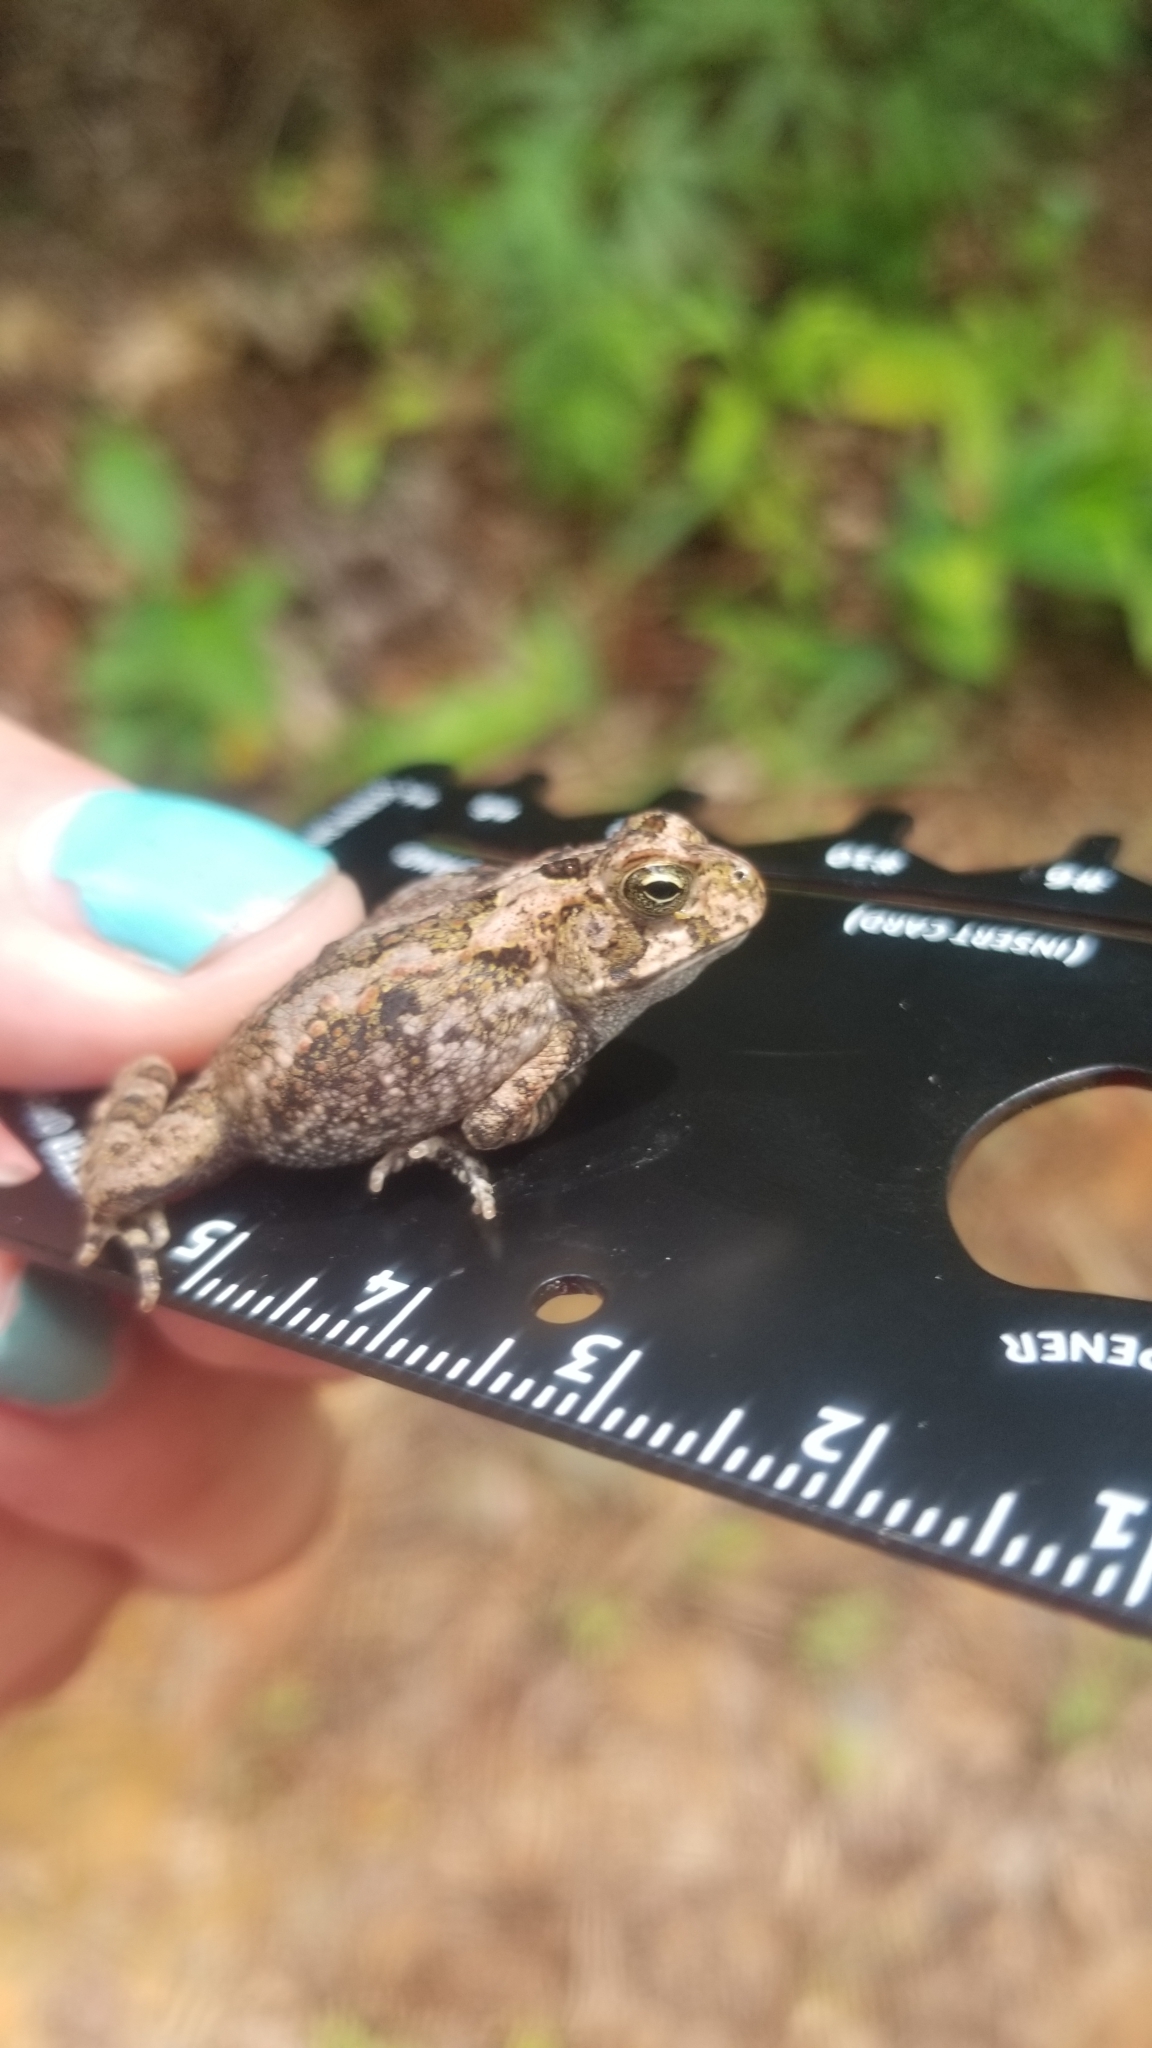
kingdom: Animalia
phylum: Chordata
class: Amphibia
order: Anura
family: Bufonidae
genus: Rhinella
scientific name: Rhinella alata
